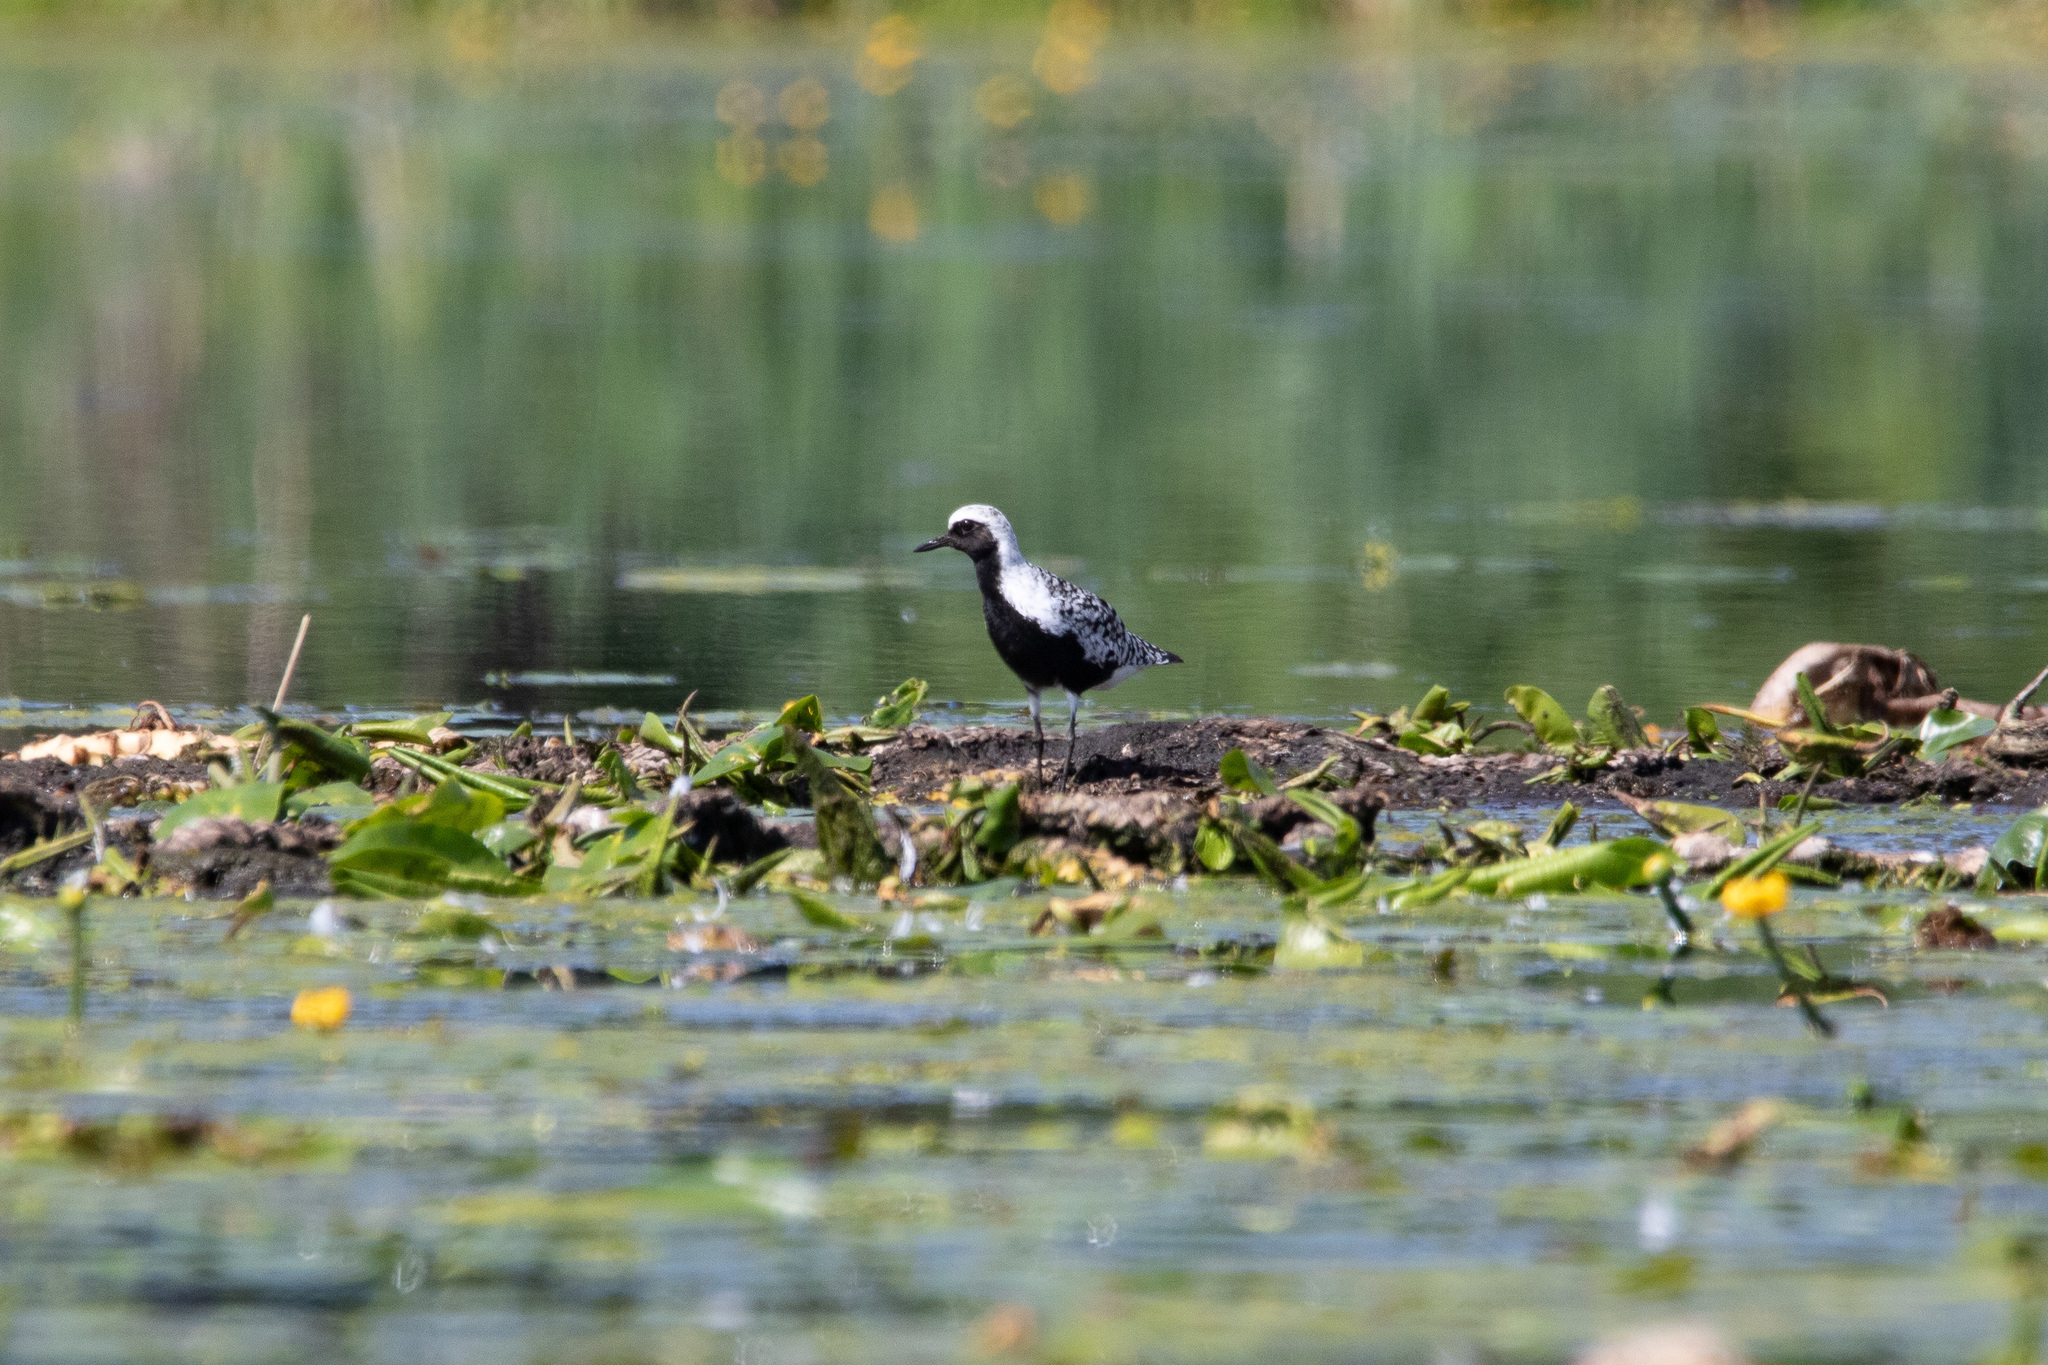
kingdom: Animalia
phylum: Chordata
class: Aves
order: Charadriiformes
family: Charadriidae
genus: Pluvialis
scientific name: Pluvialis squatarola
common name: Grey plover
